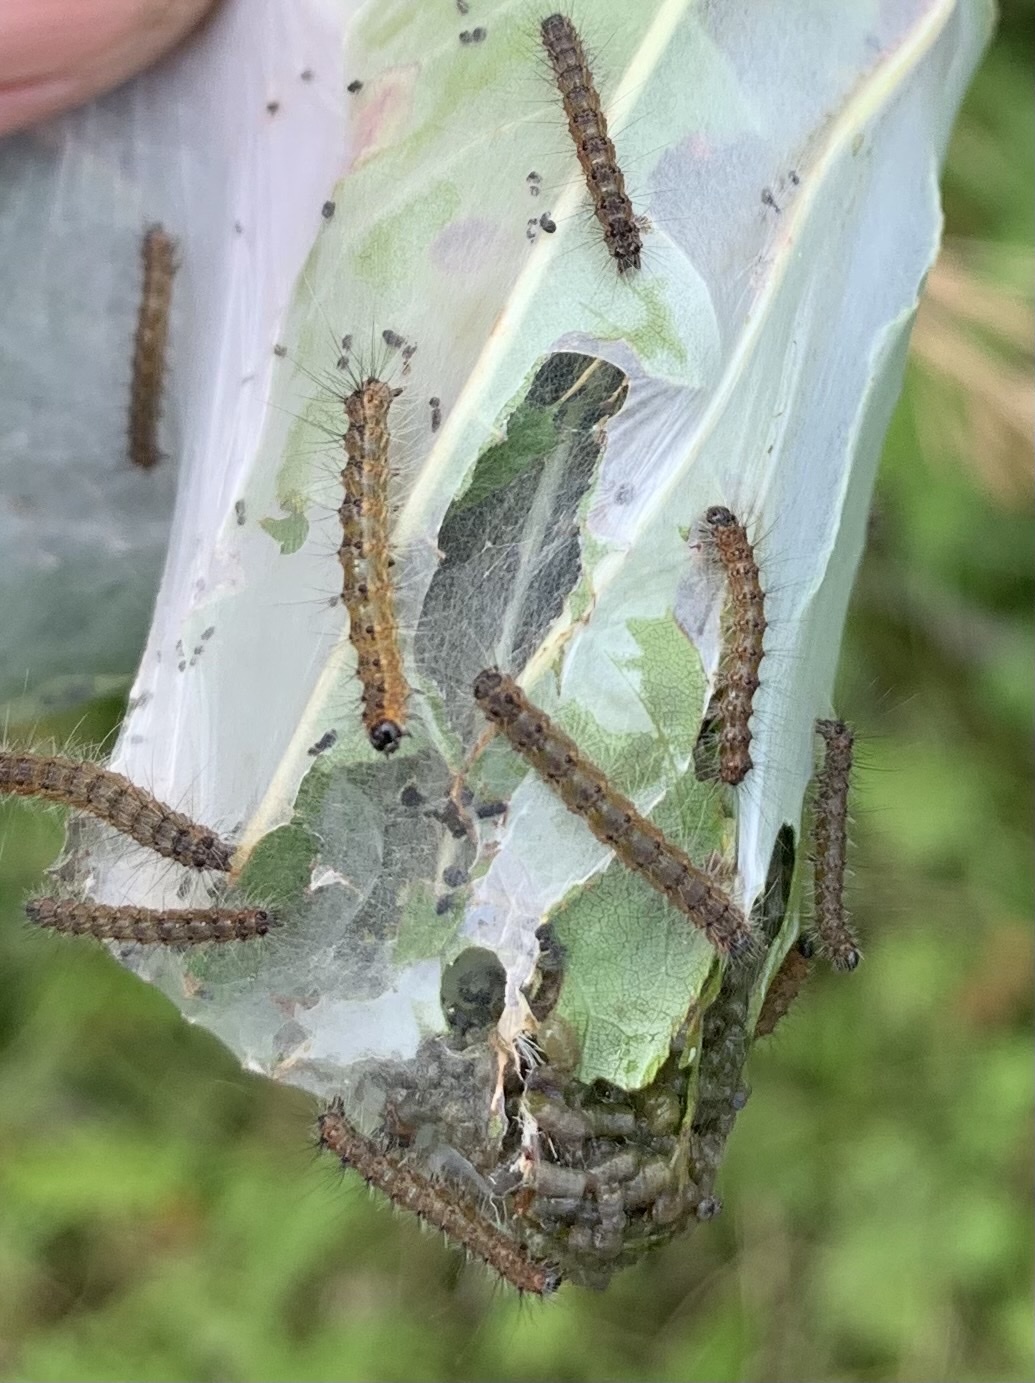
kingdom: Animalia
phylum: Arthropoda
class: Insecta
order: Lepidoptera
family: Erebidae
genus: Hyphantria
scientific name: Hyphantria cunea
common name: American white moth
